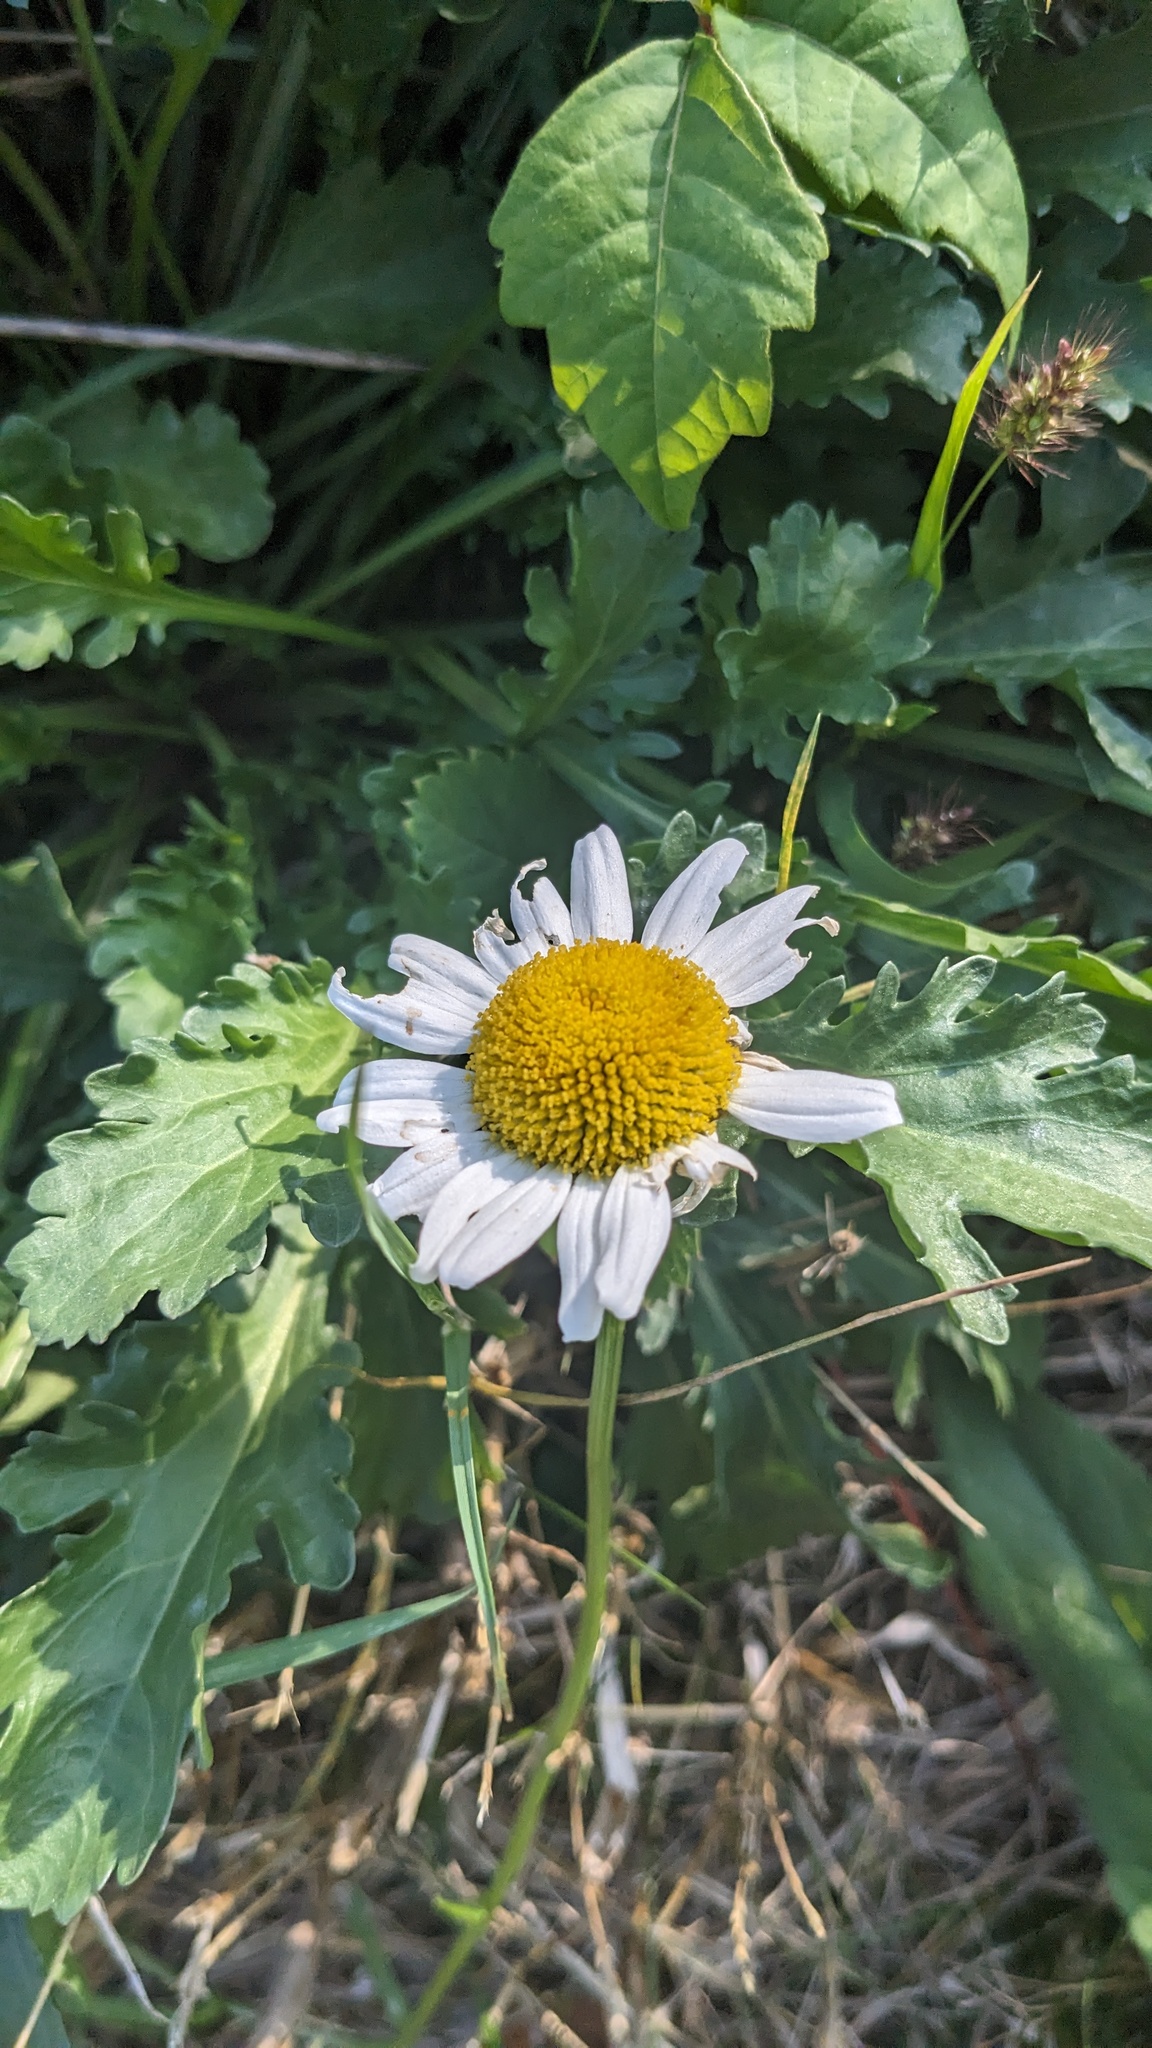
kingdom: Plantae
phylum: Tracheophyta
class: Magnoliopsida
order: Asterales
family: Asteraceae
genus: Leucanthemum
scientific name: Leucanthemum vulgare
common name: Oxeye daisy
